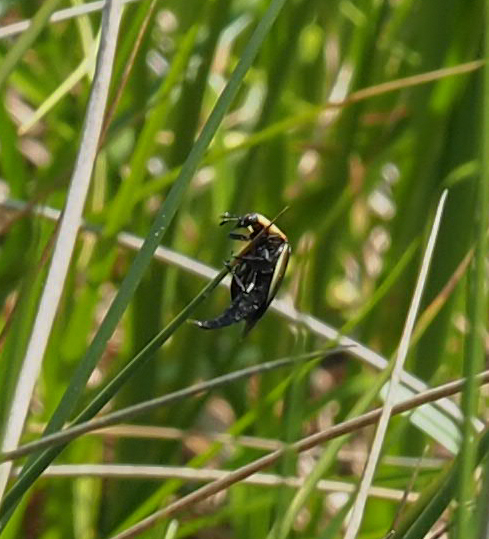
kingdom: Animalia
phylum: Arthropoda
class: Insecta
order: Coleoptera
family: Staphylinidae
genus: Necrophila
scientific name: Necrophila americana
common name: American carrion beetle
